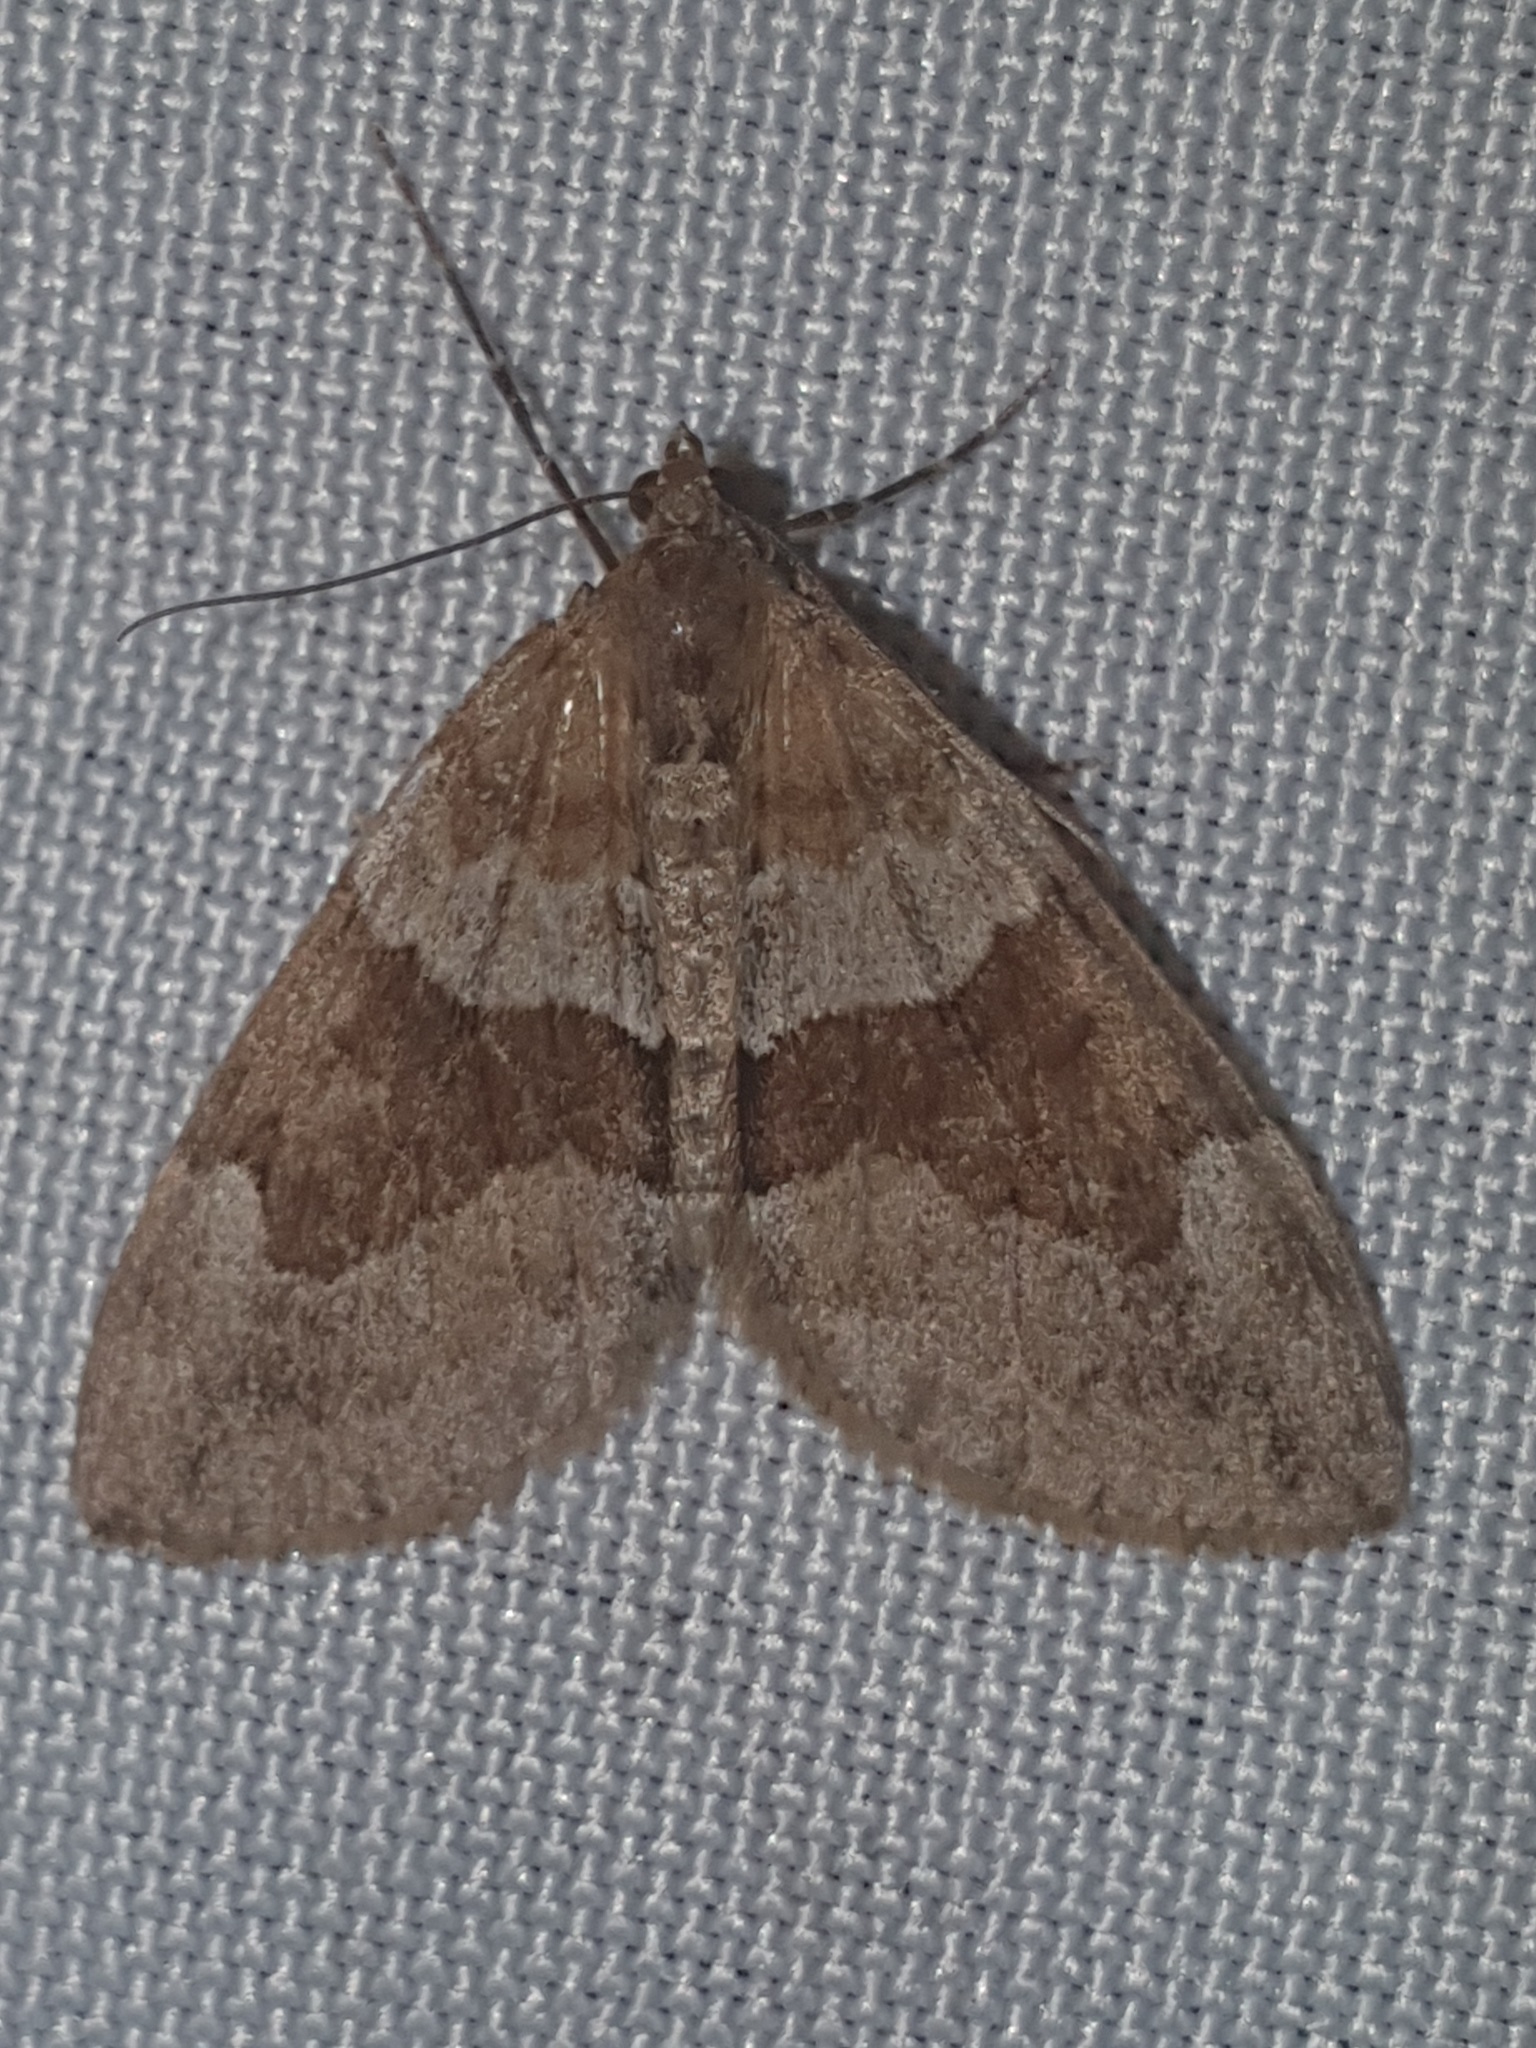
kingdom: Animalia
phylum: Arthropoda
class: Insecta
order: Lepidoptera
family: Geometridae
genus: Thera
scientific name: Thera obeliscata
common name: Grey pine carpet
